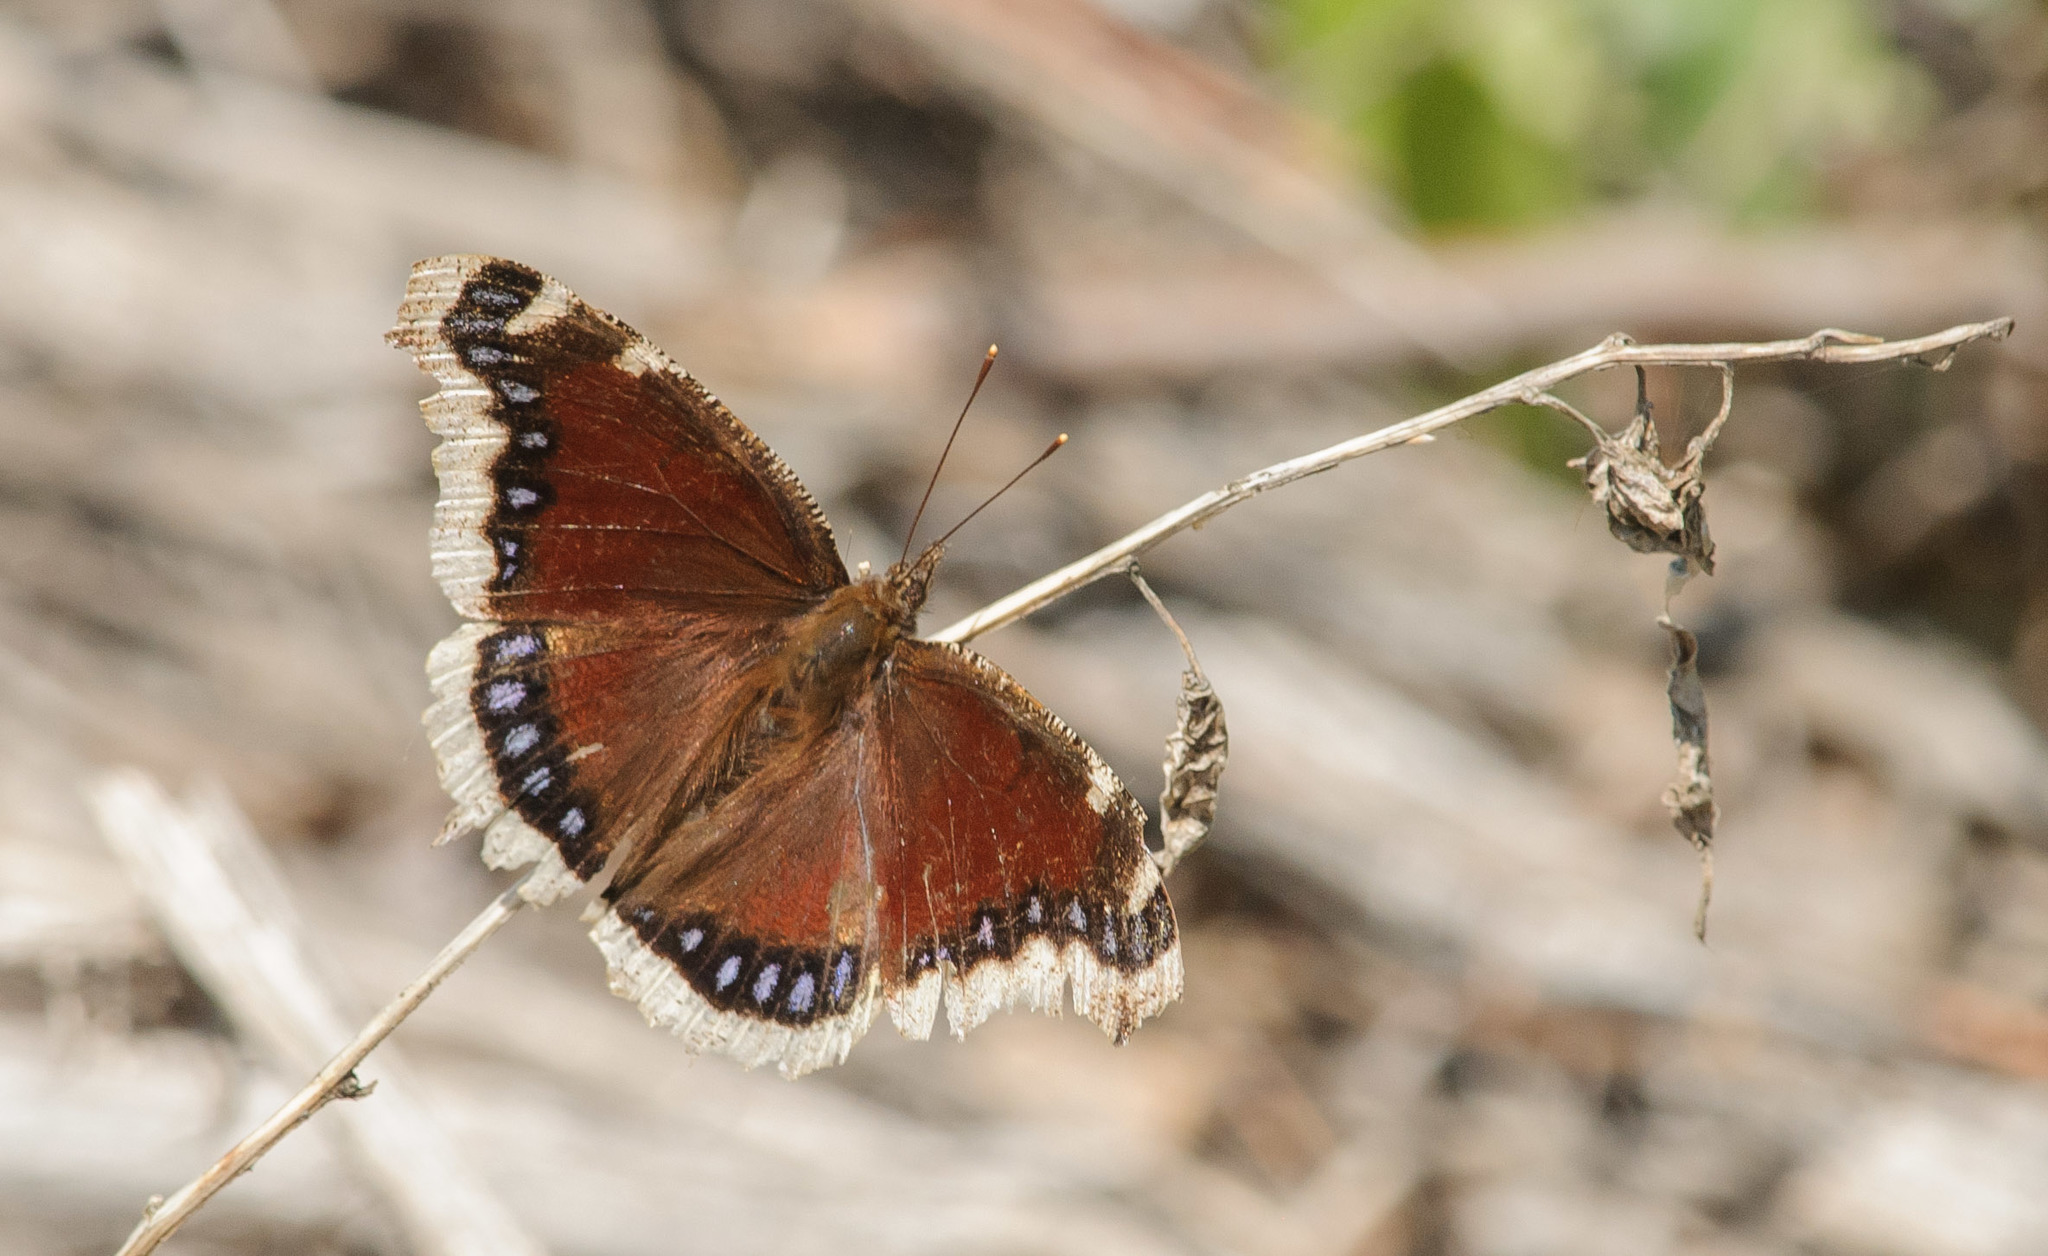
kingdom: Animalia
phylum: Arthropoda
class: Insecta
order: Lepidoptera
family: Nymphalidae
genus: Nymphalis
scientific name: Nymphalis antiopa
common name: Camberwell beauty
